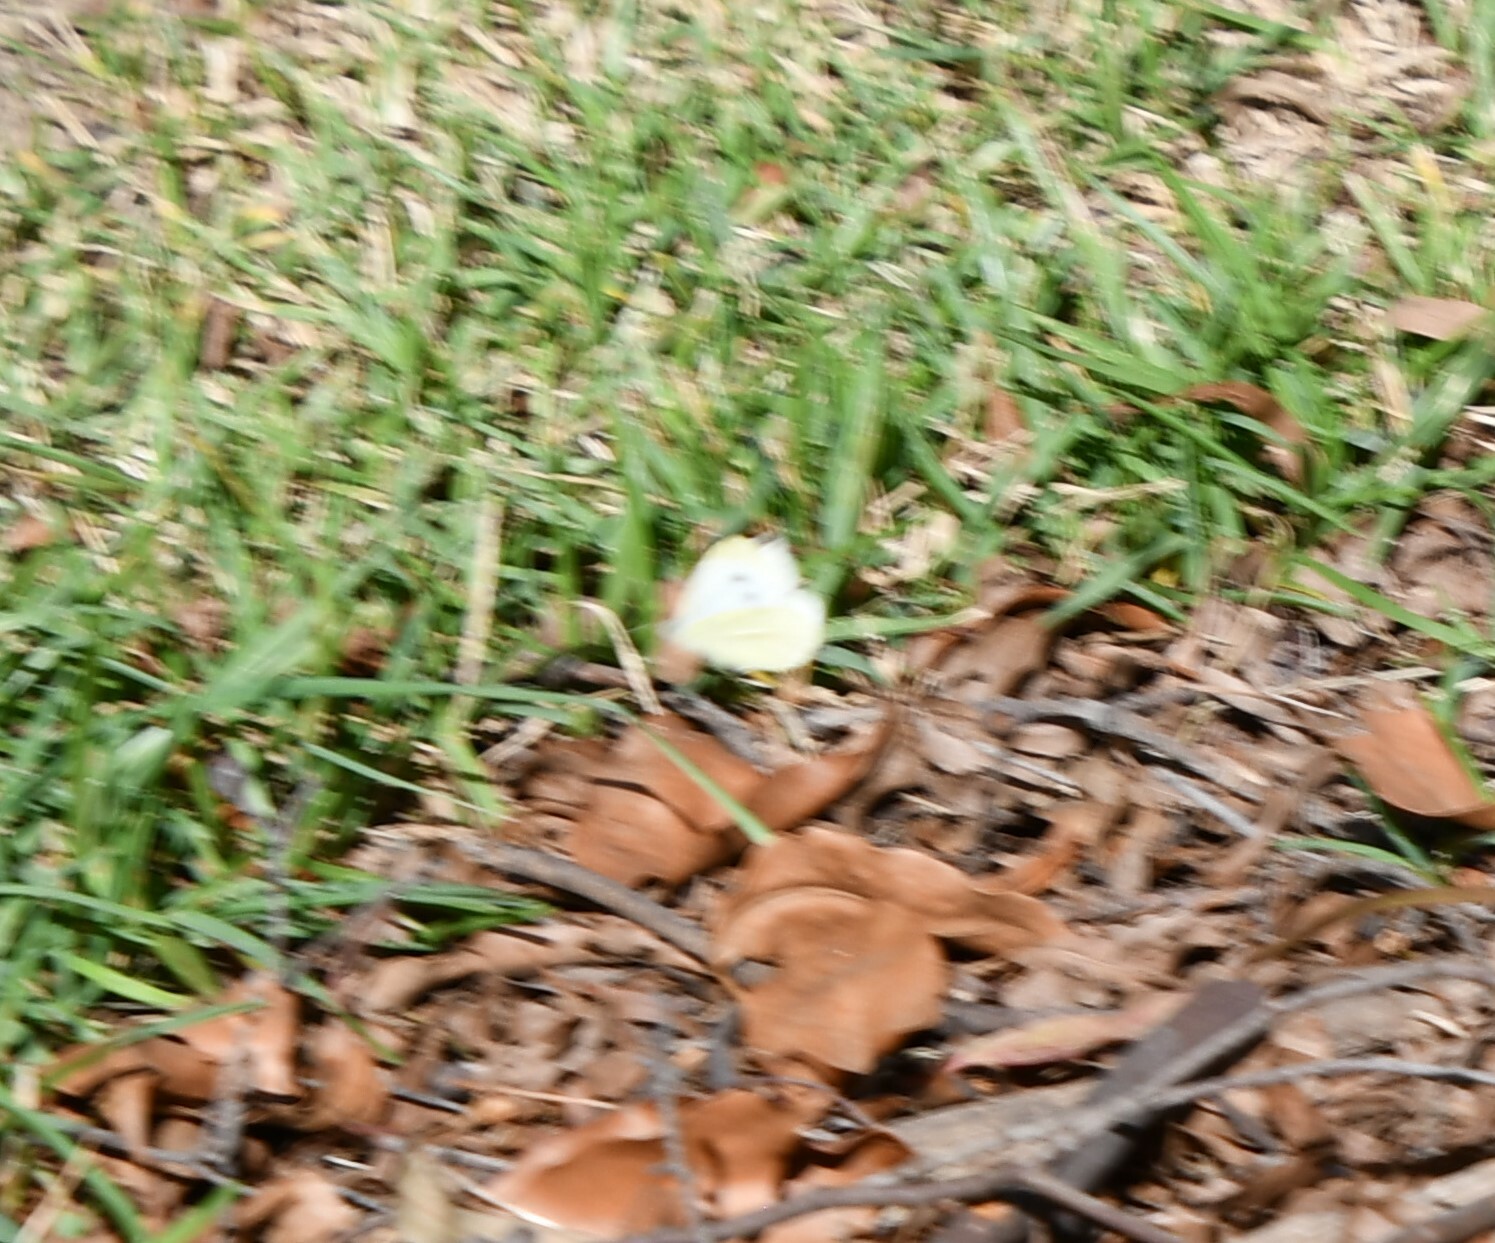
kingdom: Animalia
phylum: Arthropoda
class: Insecta
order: Lepidoptera
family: Pieridae
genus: Pieris
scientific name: Pieris rapae
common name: Small white
